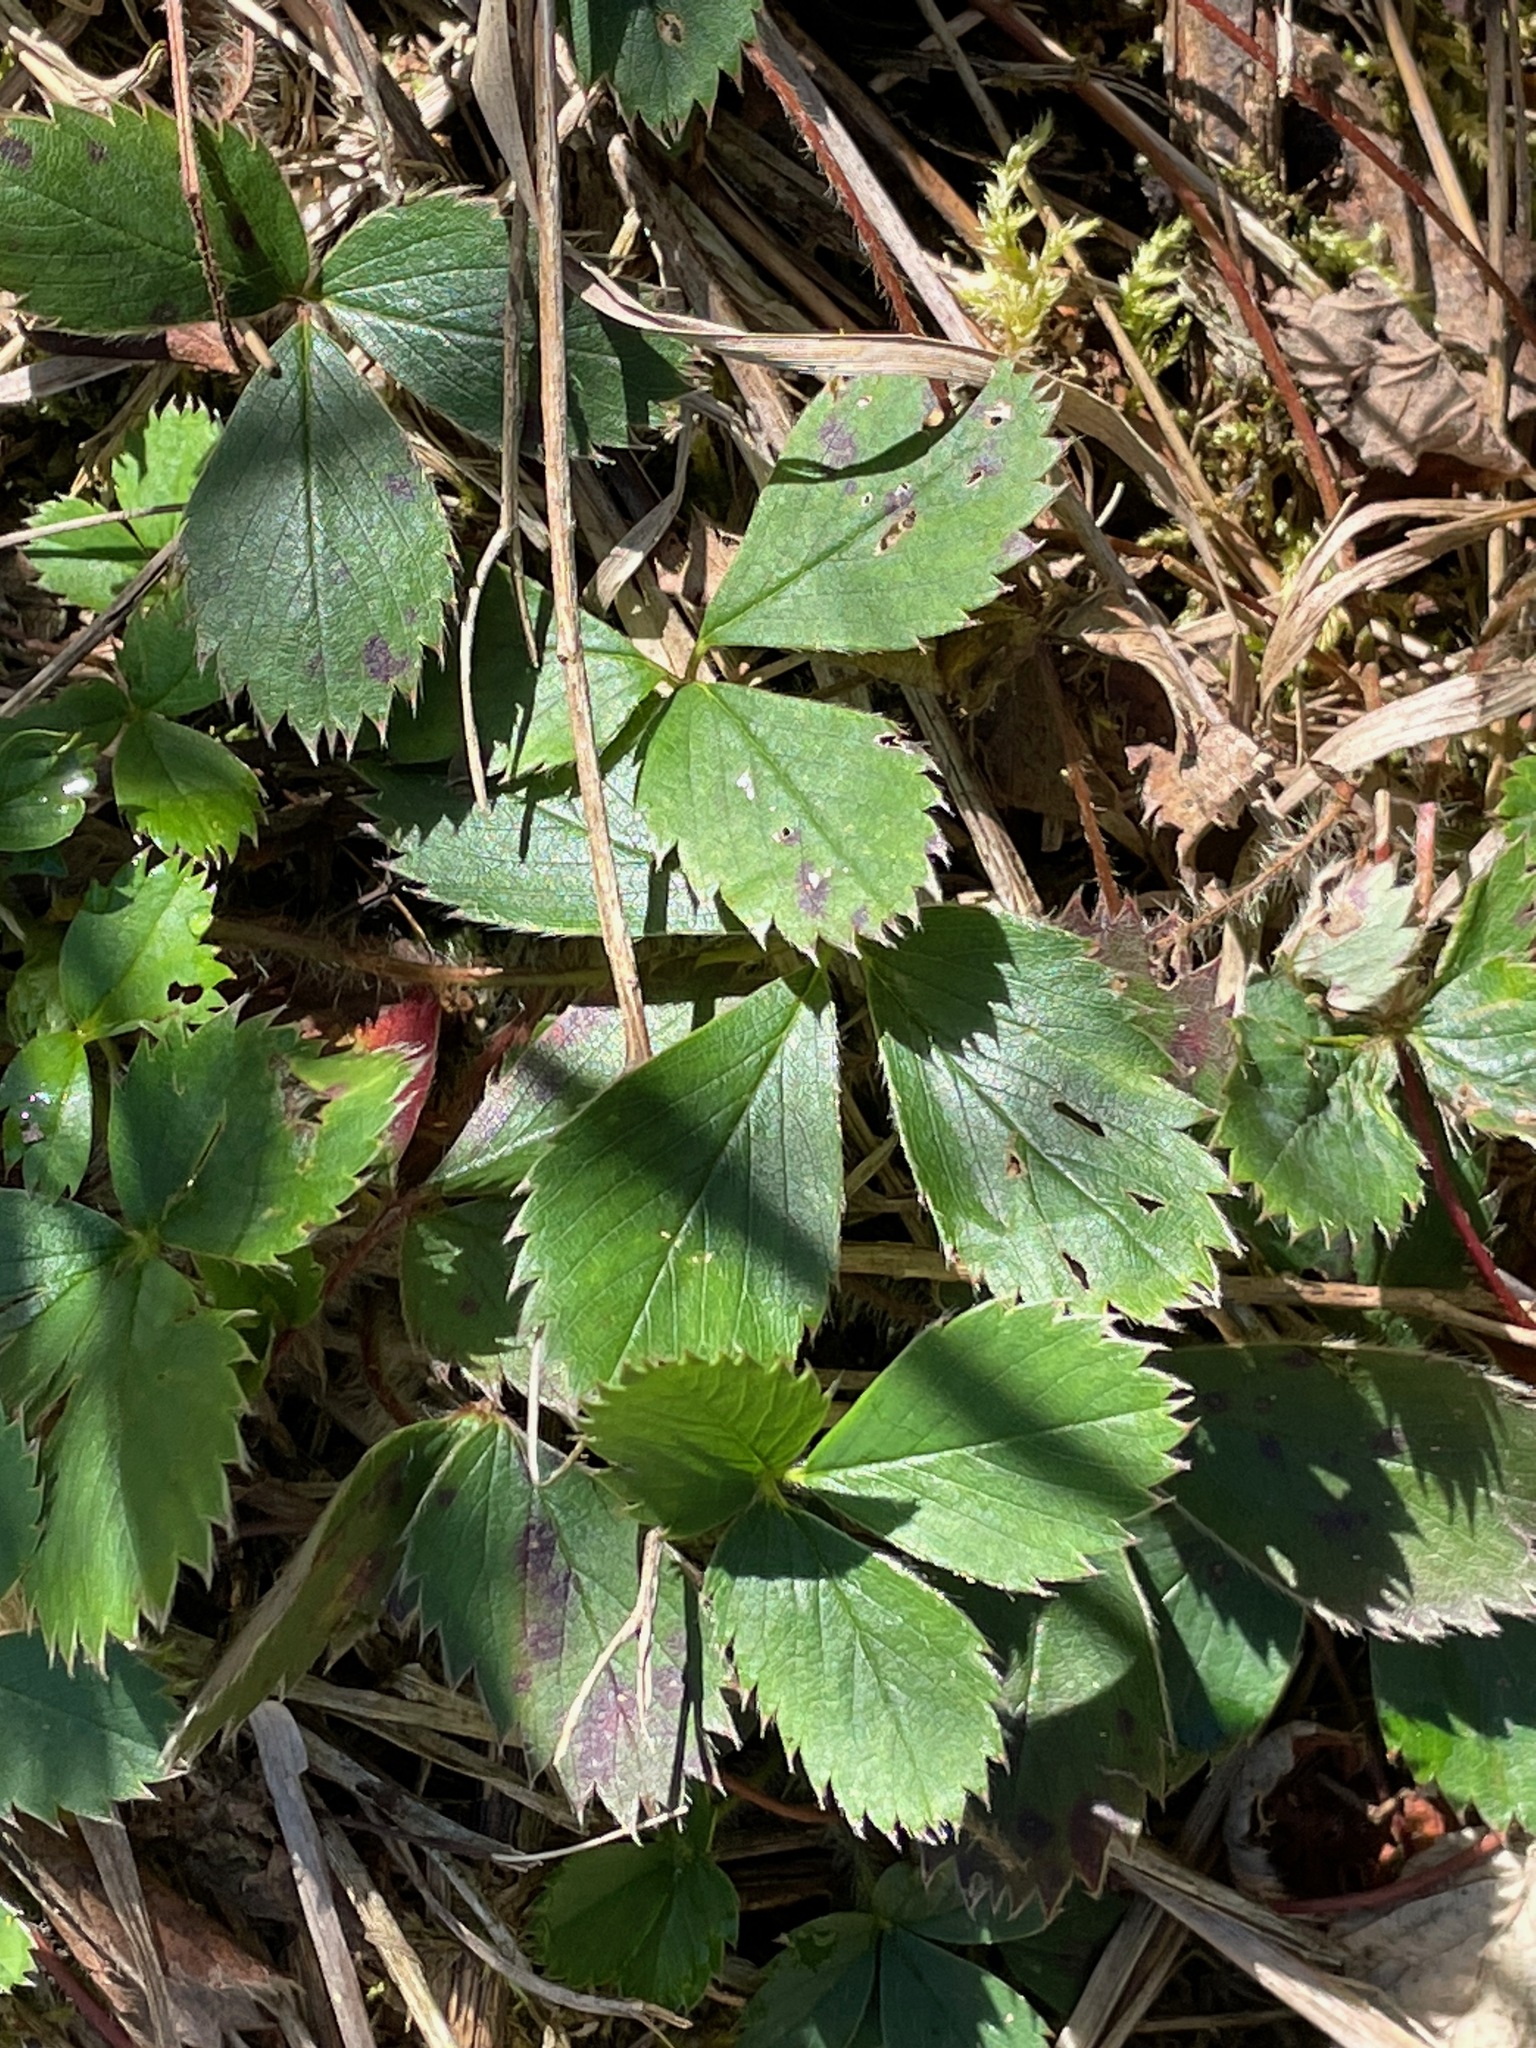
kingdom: Plantae
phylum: Tracheophyta
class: Magnoliopsida
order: Rosales
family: Rosaceae
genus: Fragaria
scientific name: Fragaria virginiana
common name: Thickleaved wild strawberry
